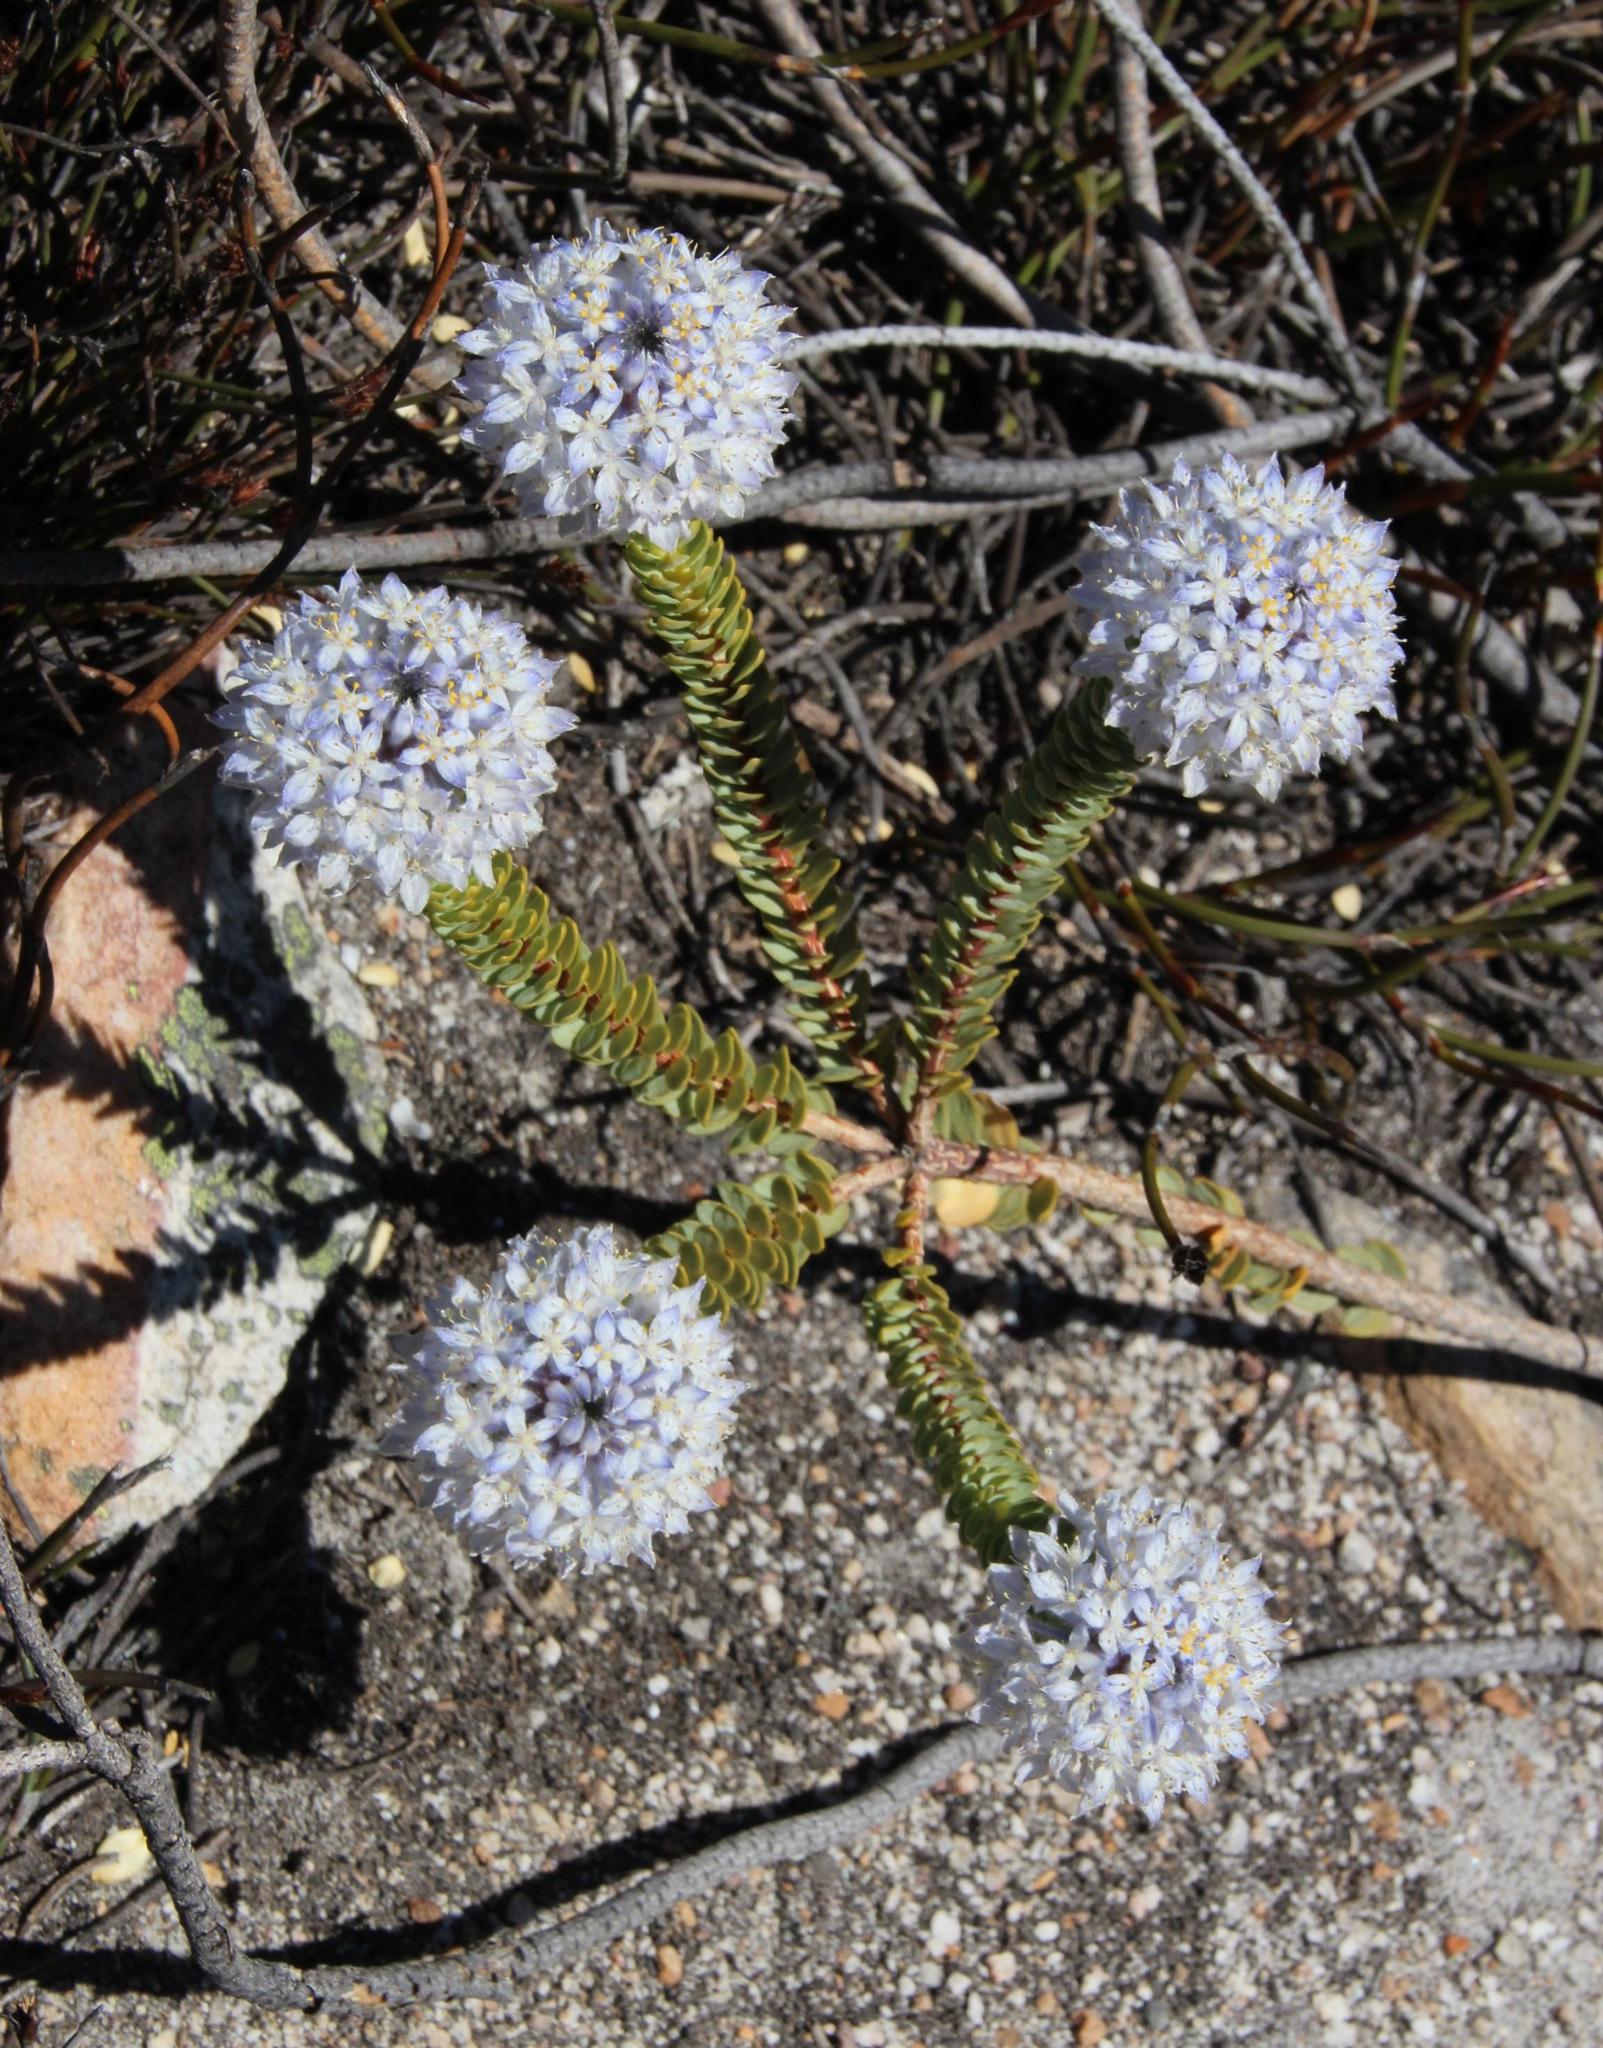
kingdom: Plantae
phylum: Tracheophyta
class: Magnoliopsida
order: Malvales
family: Thymelaeaceae
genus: Lachnaea
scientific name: Lachnaea pomposa
